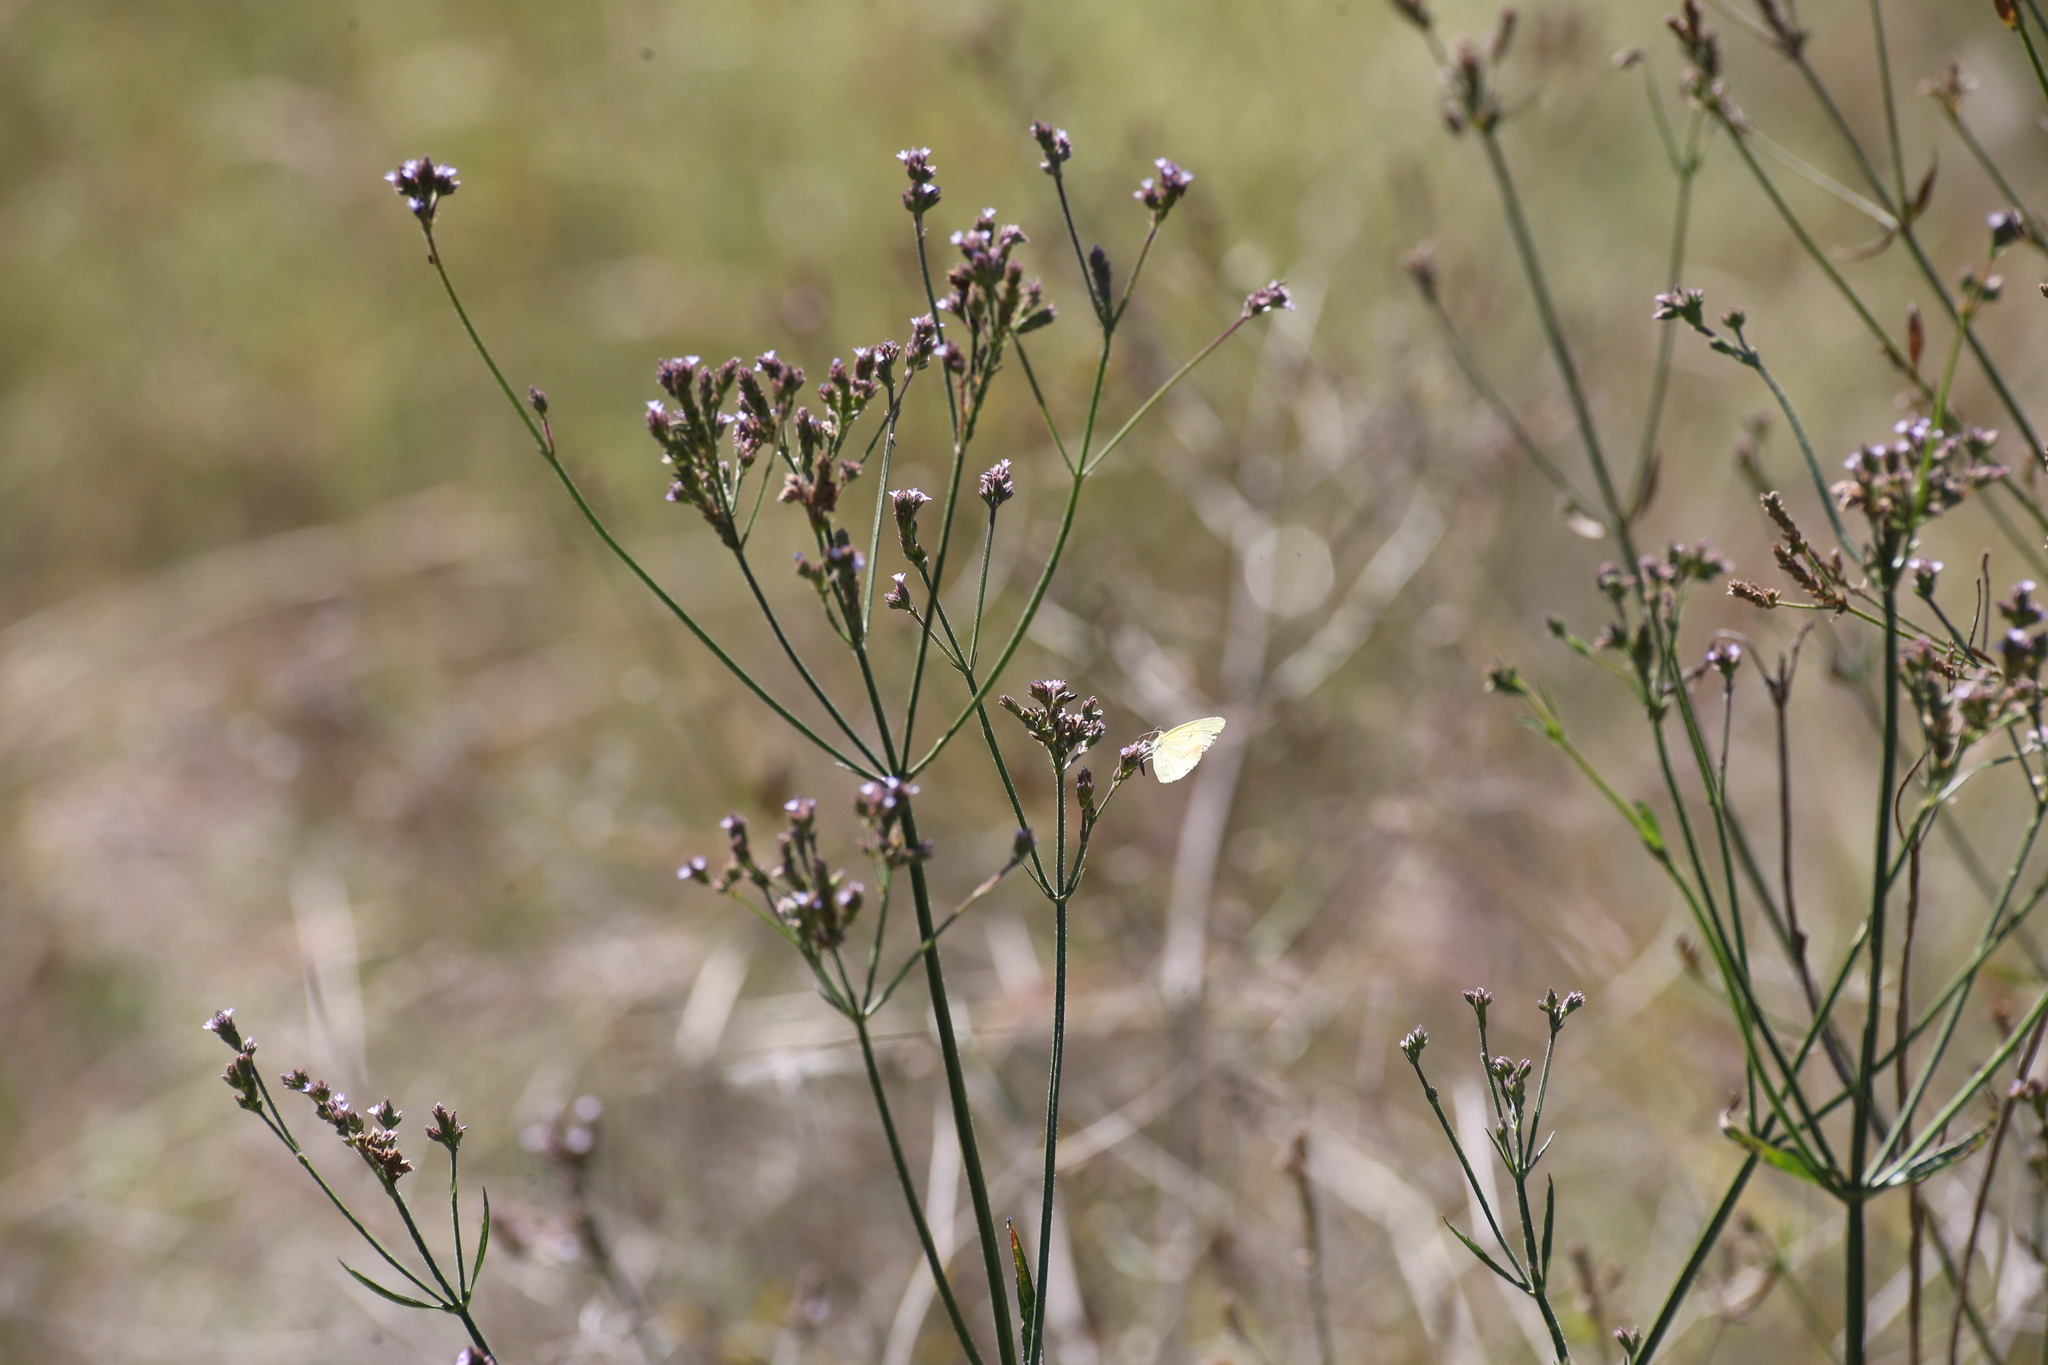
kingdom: Plantae
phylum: Tracheophyta
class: Magnoliopsida
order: Lamiales
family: Verbenaceae
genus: Verbena
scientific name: Verbena brasiliensis
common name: Brazilian vervain
